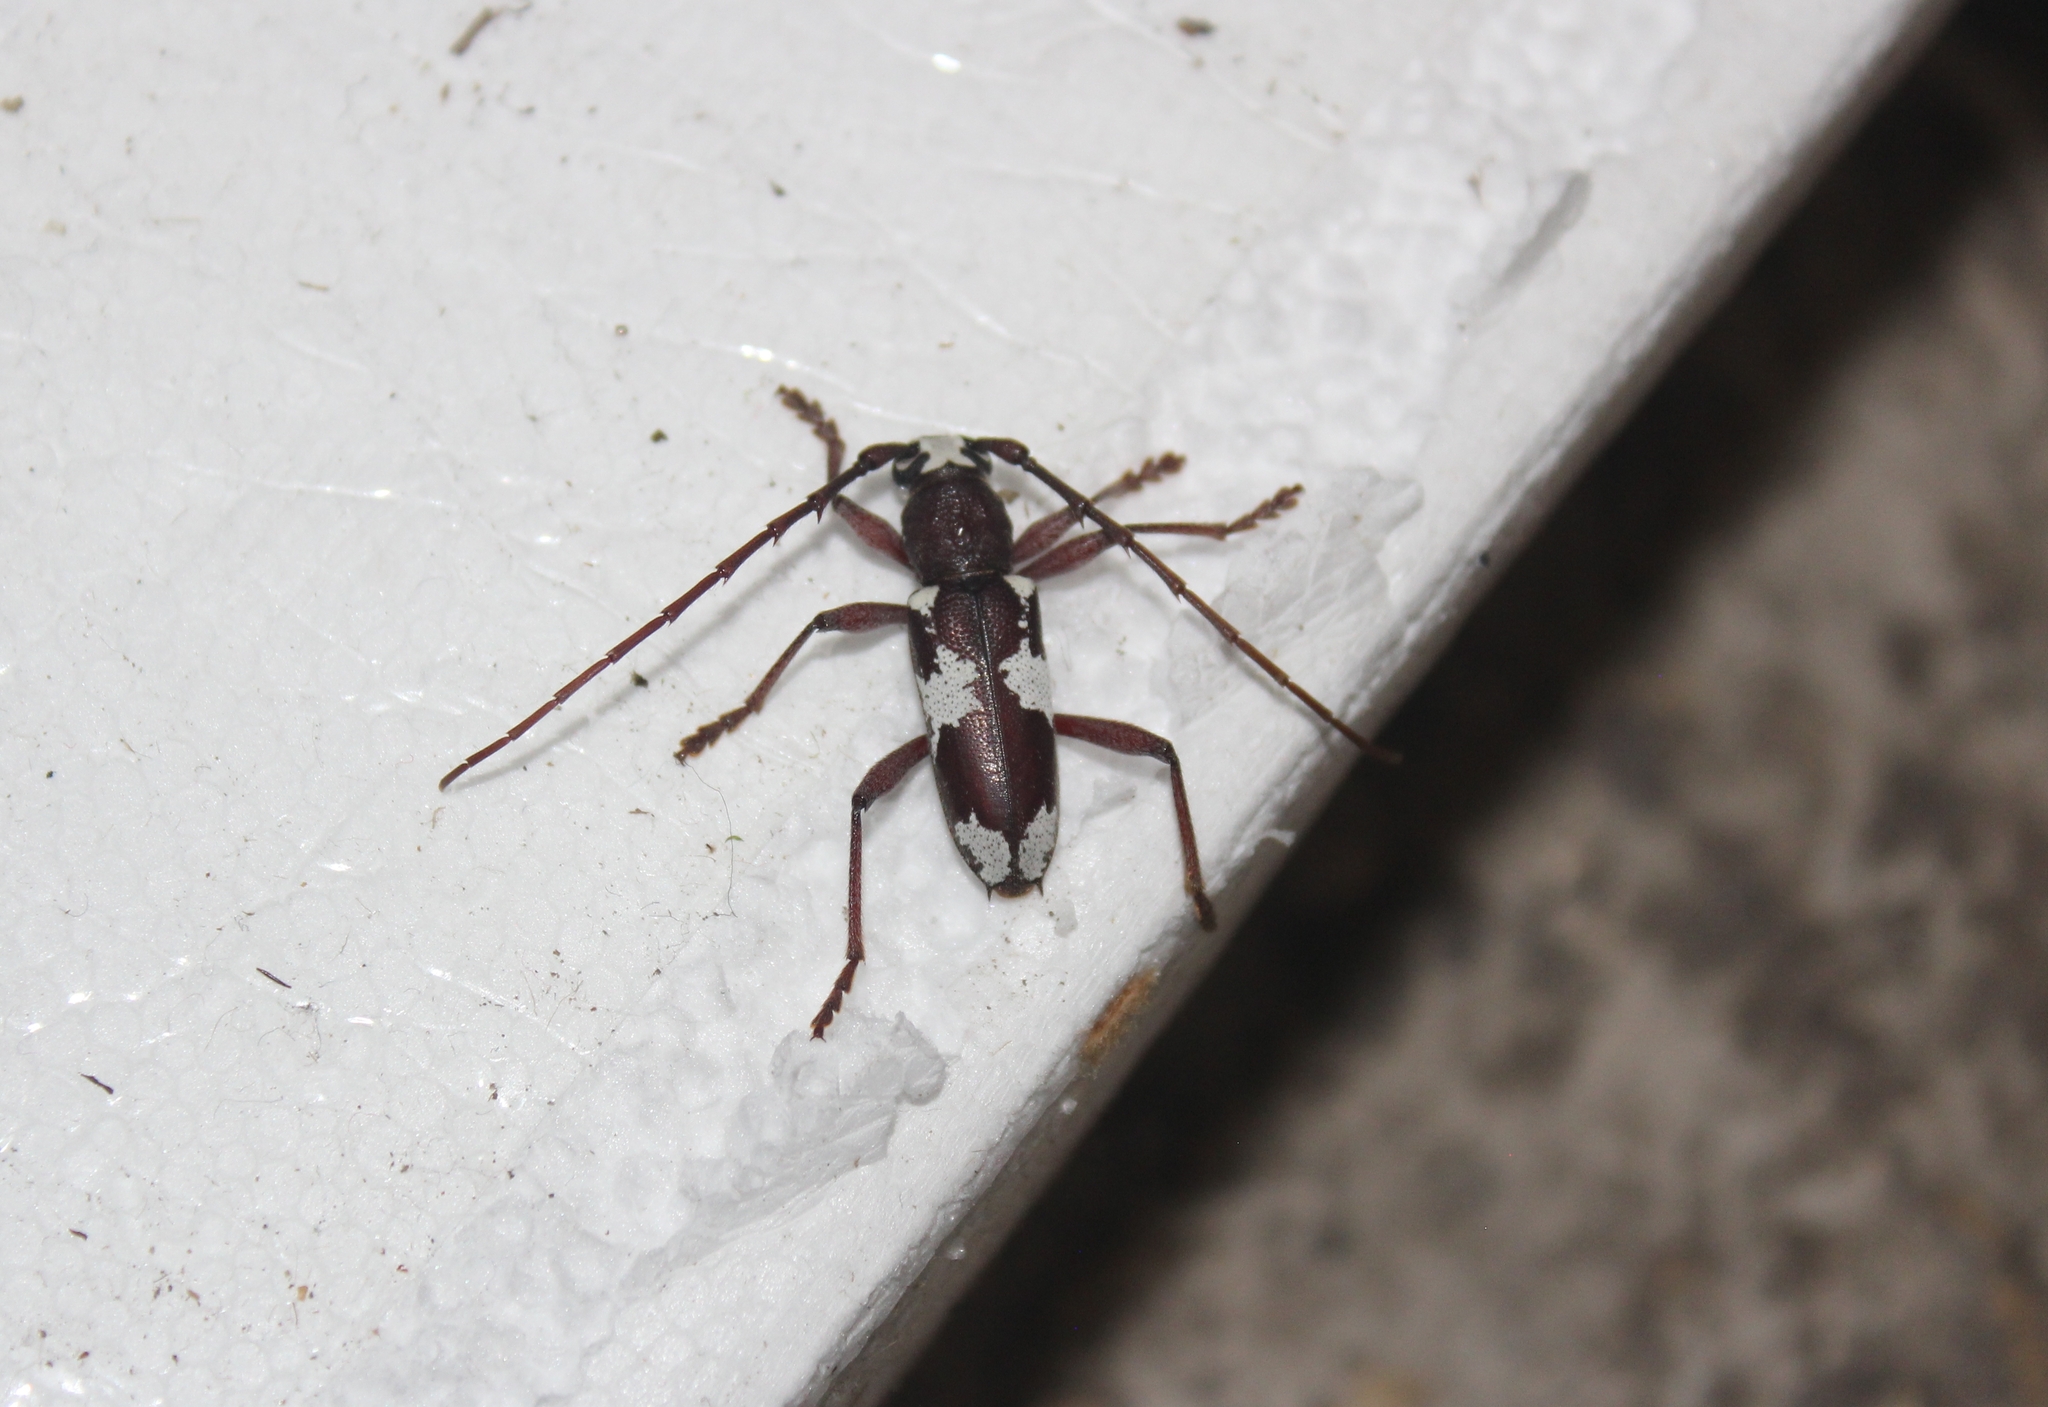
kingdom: Animalia
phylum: Arthropoda
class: Insecta
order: Coleoptera
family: Cerambycidae
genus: Enaphalodes
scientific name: Enaphalodes coronatus
